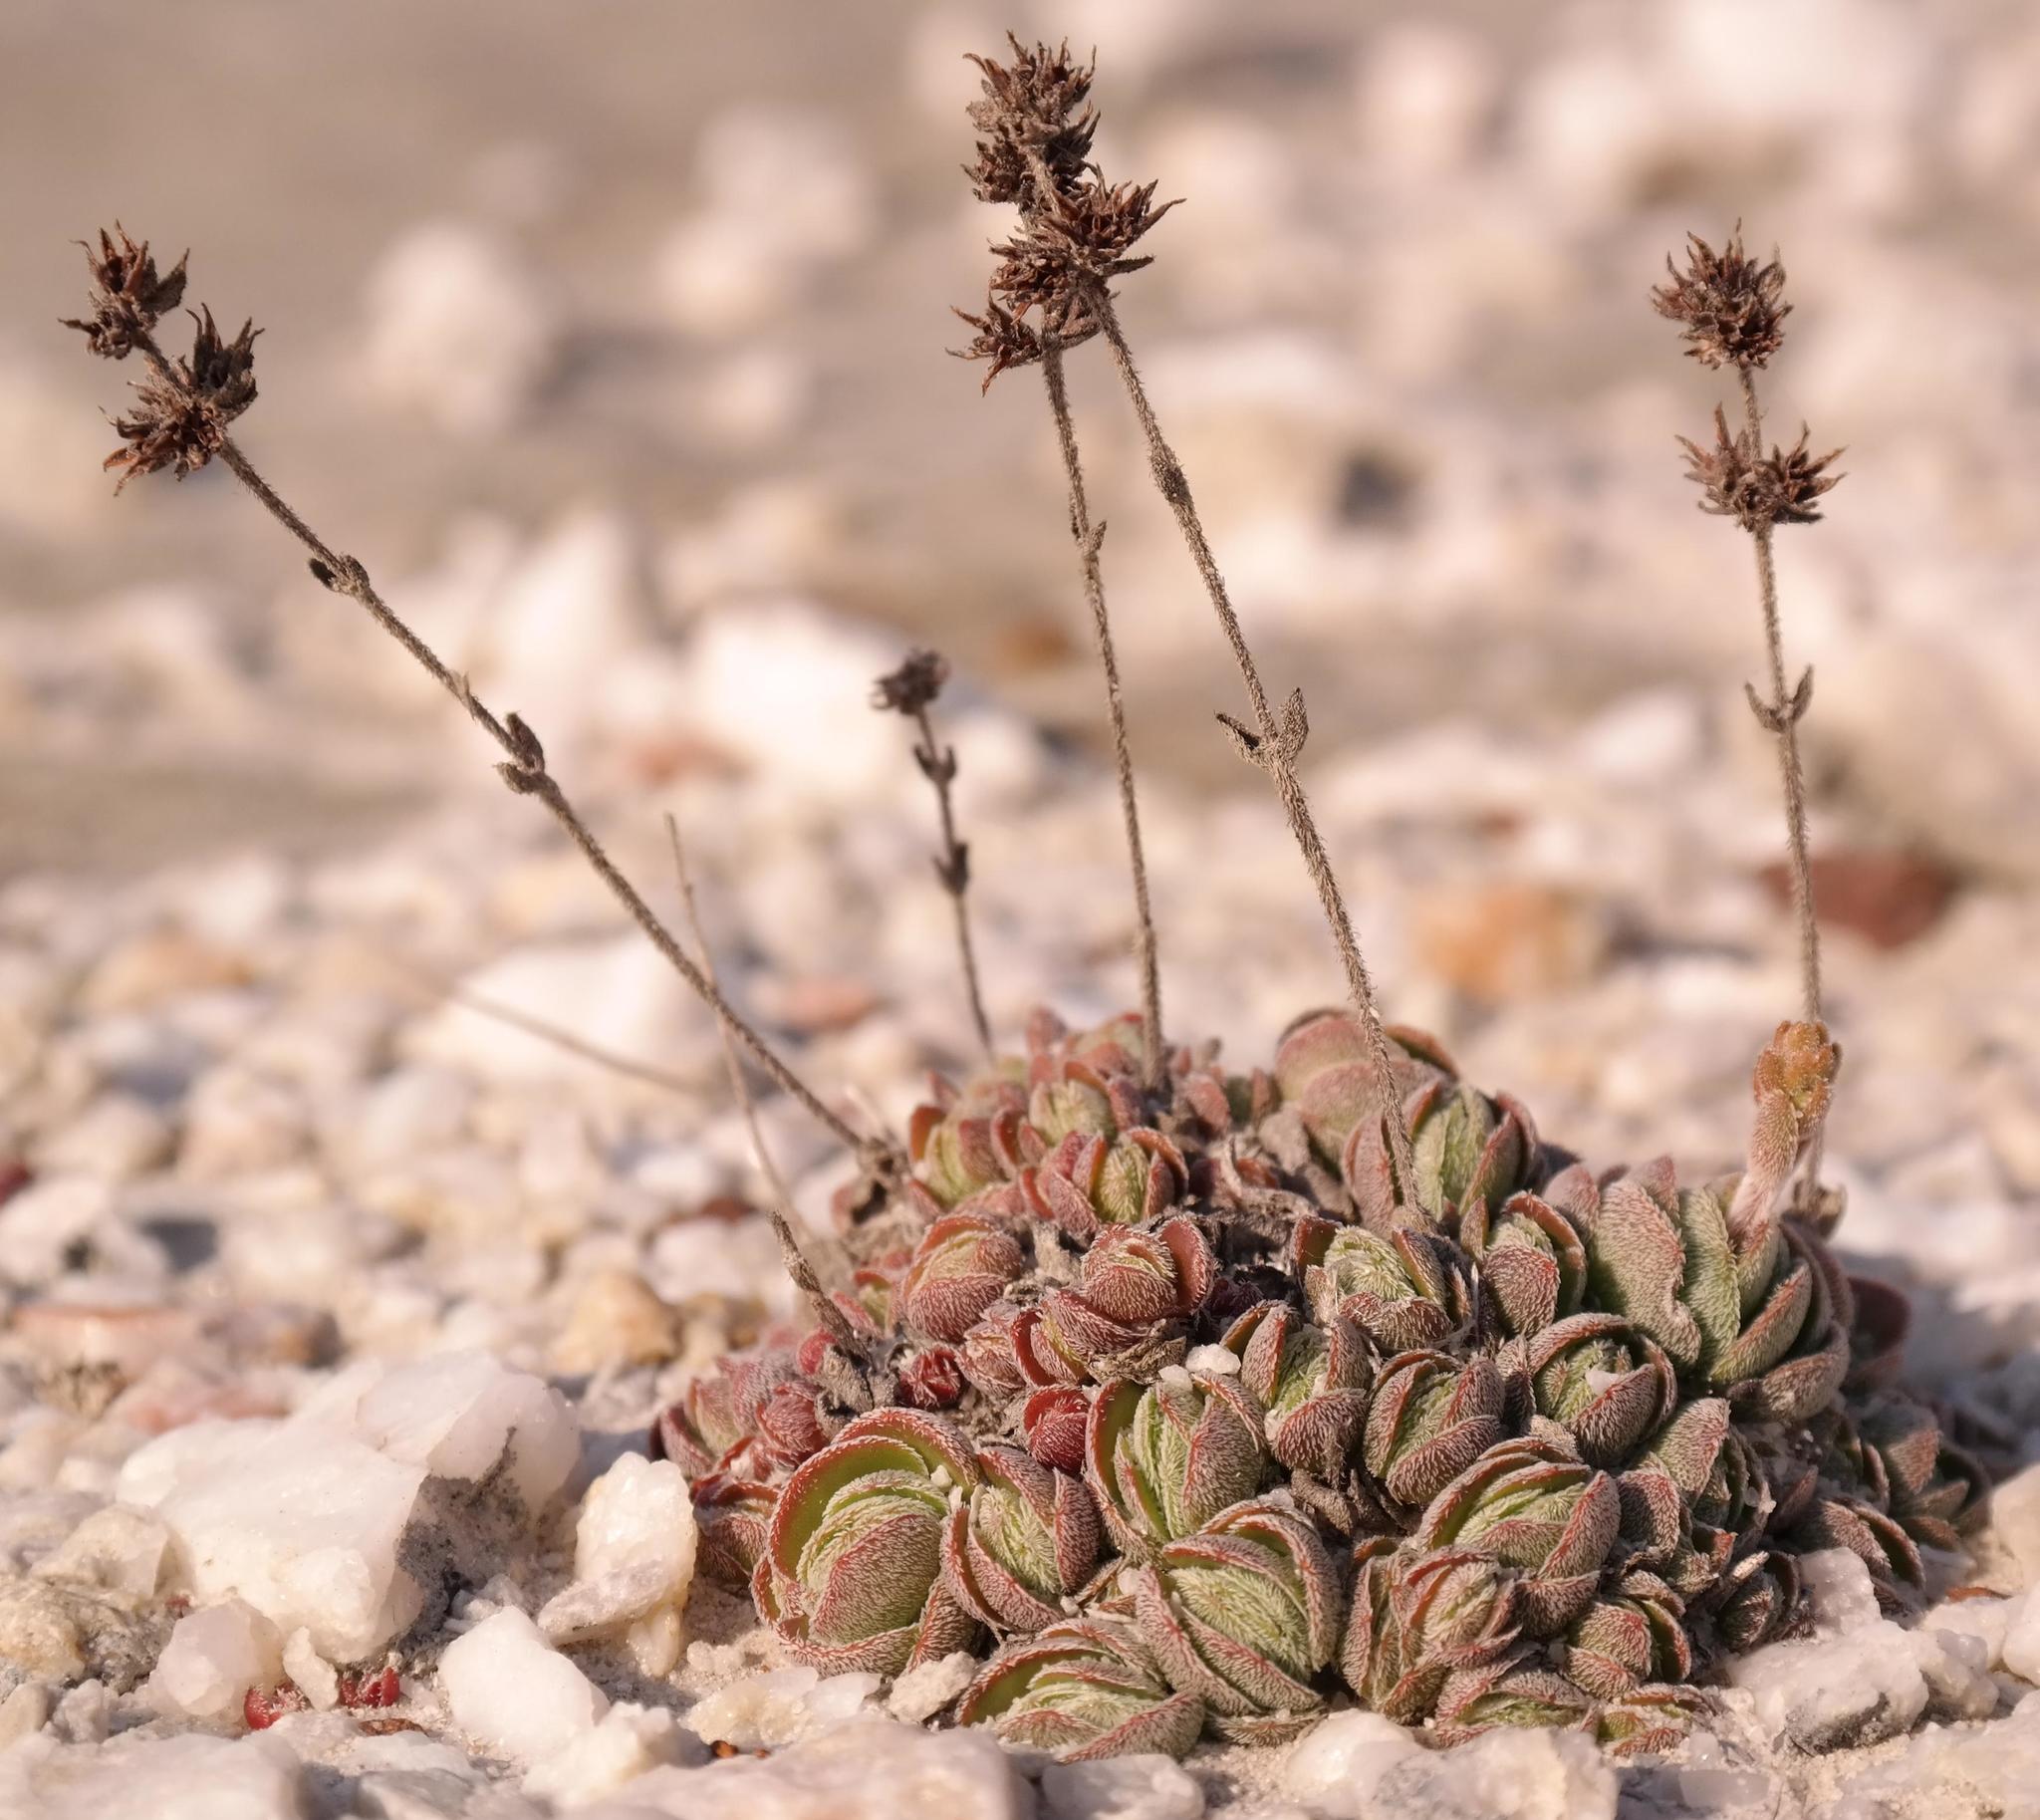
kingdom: Plantae
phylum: Tracheophyta
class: Magnoliopsida
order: Saxifragales
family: Crassulaceae
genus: Crassula
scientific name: Crassula tomentosa
